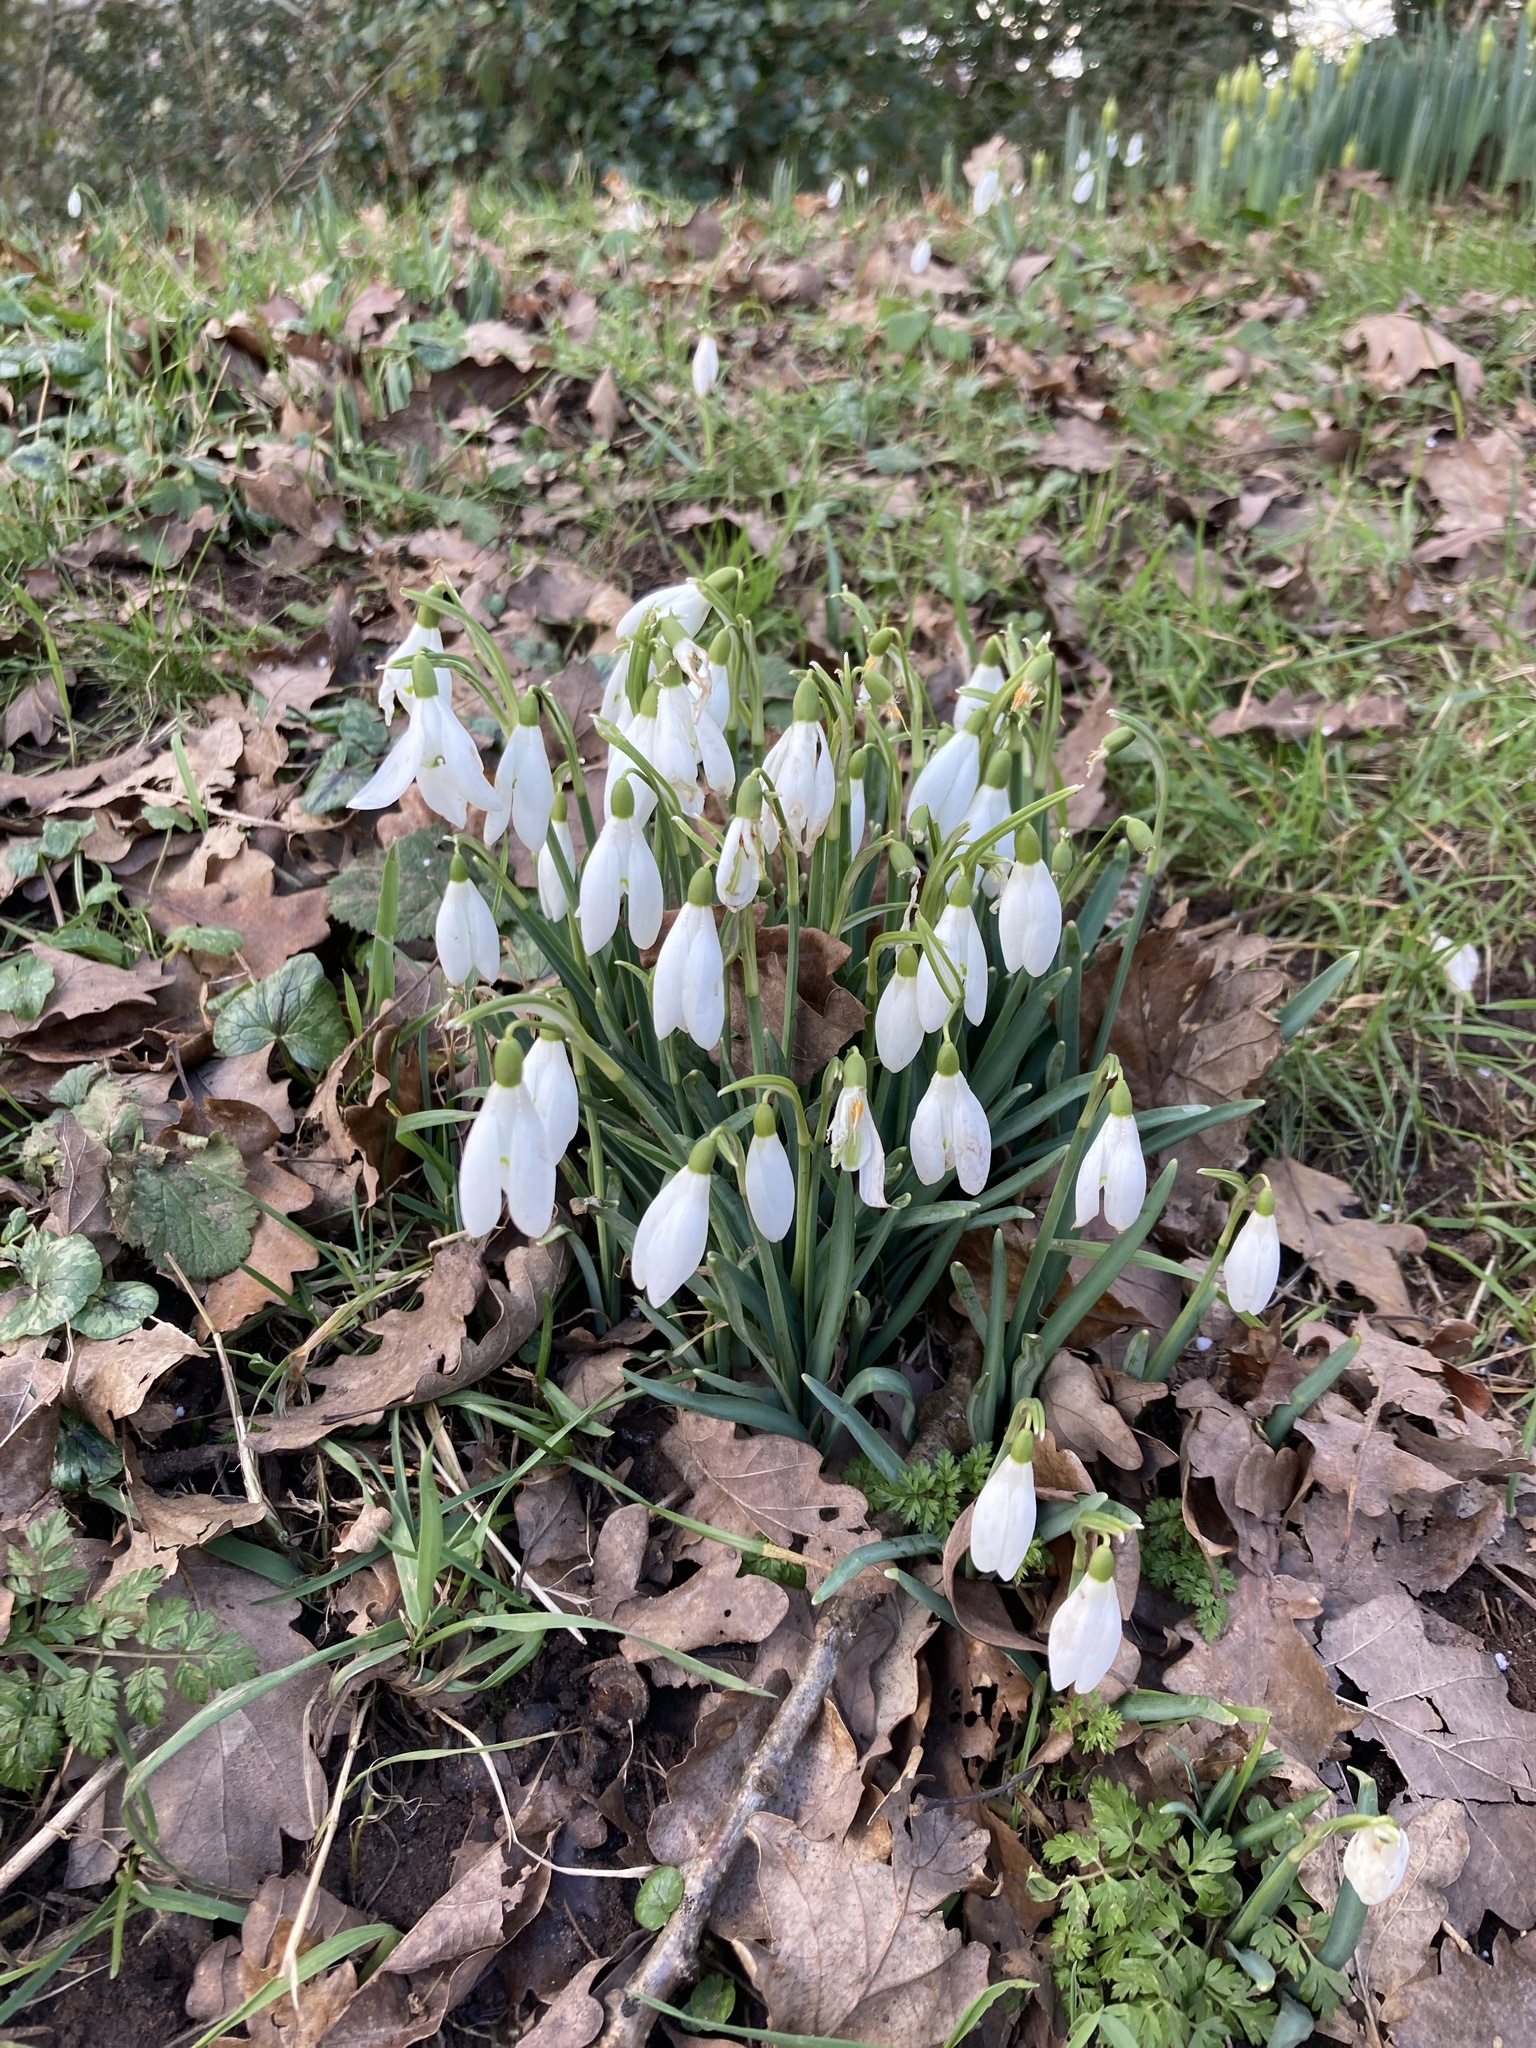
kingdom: Plantae
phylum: Tracheophyta
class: Liliopsida
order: Asparagales
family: Amaryllidaceae
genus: Galanthus
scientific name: Galanthus nivalis
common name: Snowdrop
